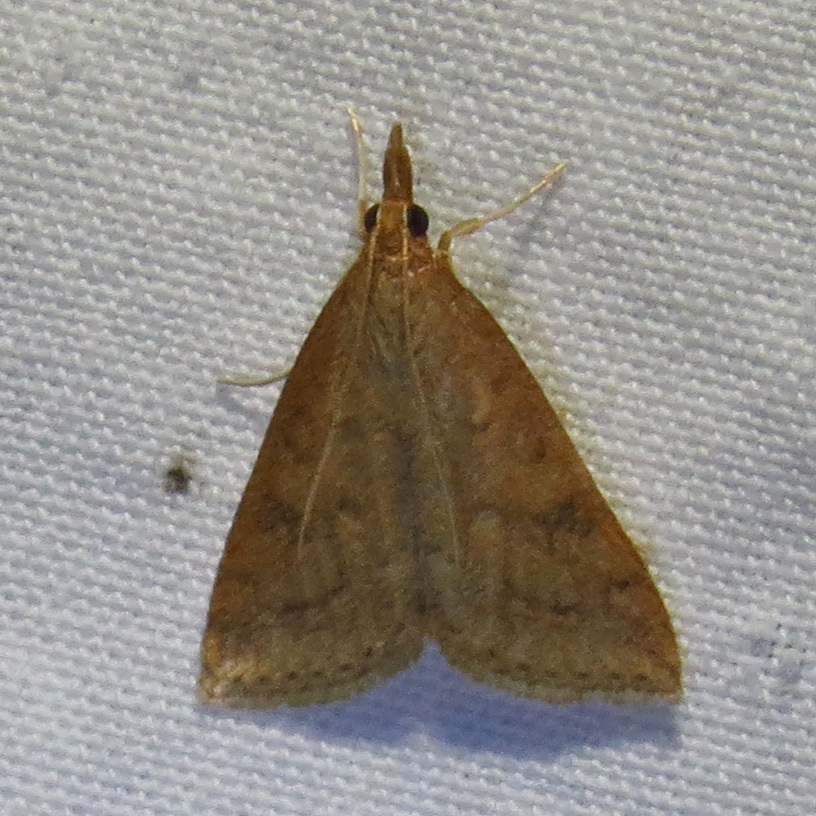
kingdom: Animalia
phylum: Arthropoda
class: Insecta
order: Lepidoptera
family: Crambidae
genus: Udea
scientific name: Udea rubigalis
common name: Celery leaftier moth
